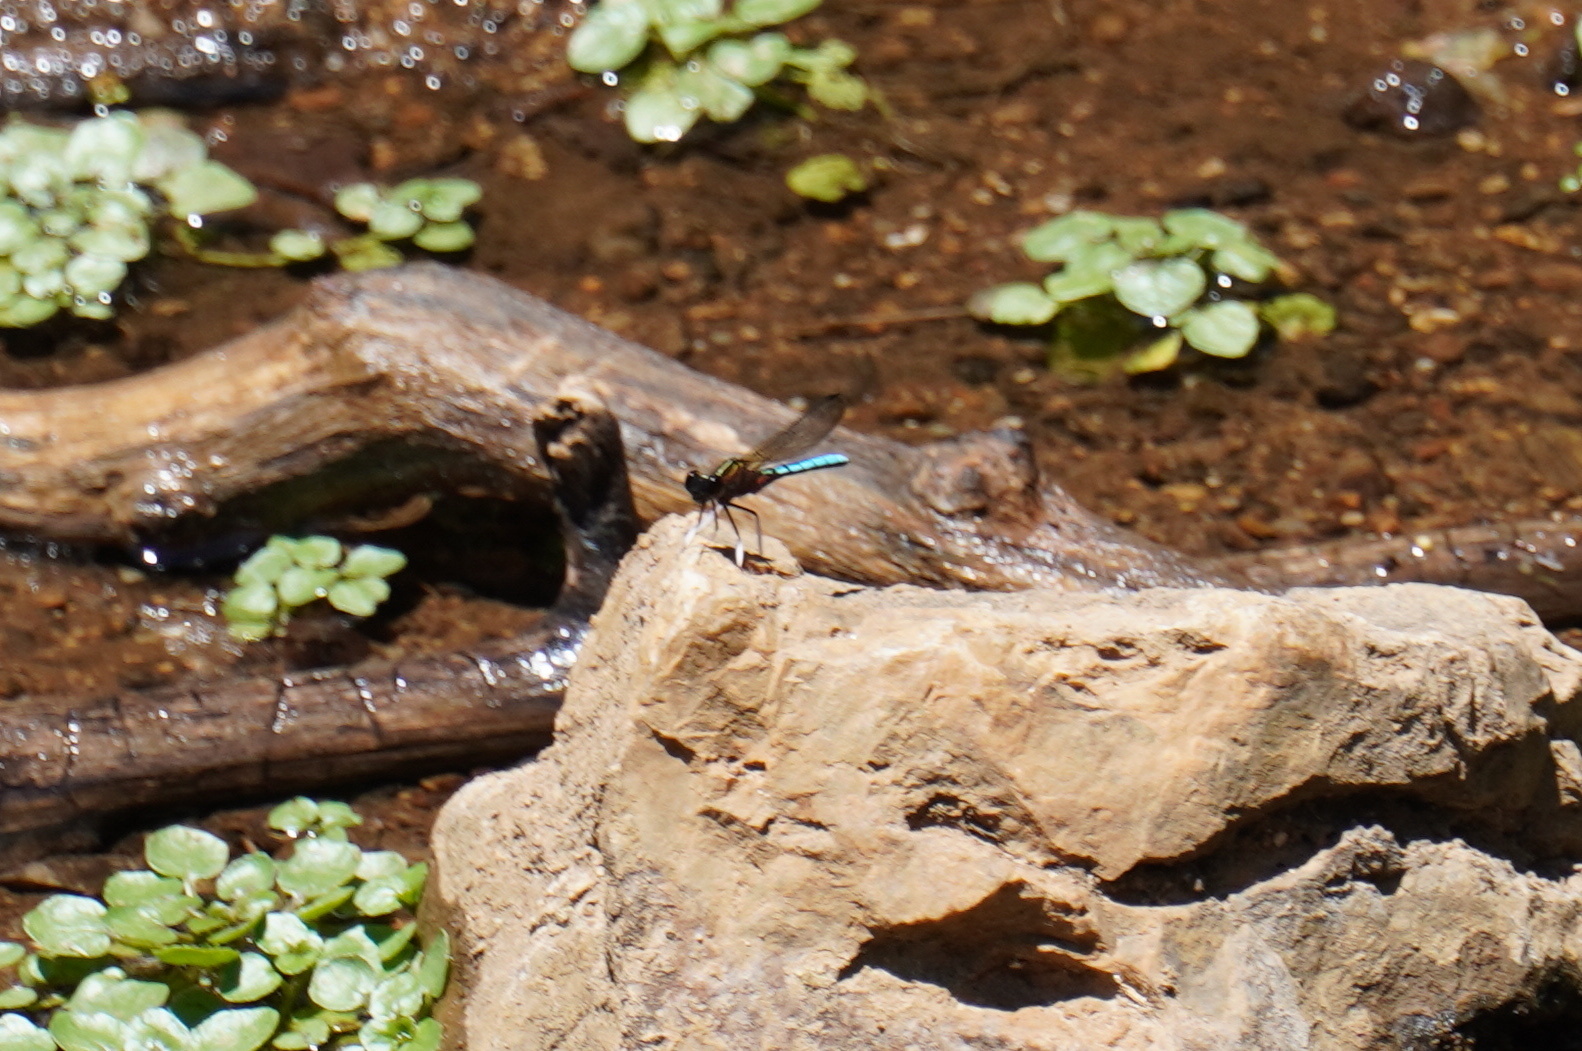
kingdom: Animalia
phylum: Arthropoda
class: Insecta
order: Odonata
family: Chlorocyphidae
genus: Platycypha
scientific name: Platycypha caligata
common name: Dancing jewel
